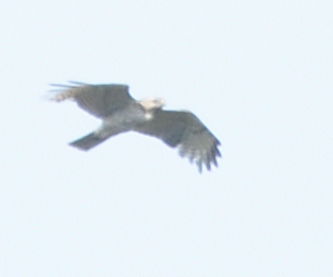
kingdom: Animalia
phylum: Chordata
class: Aves
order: Accipitriformes
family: Accipitridae
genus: Buteo
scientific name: Buteo lineatus
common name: Red-shouldered hawk
